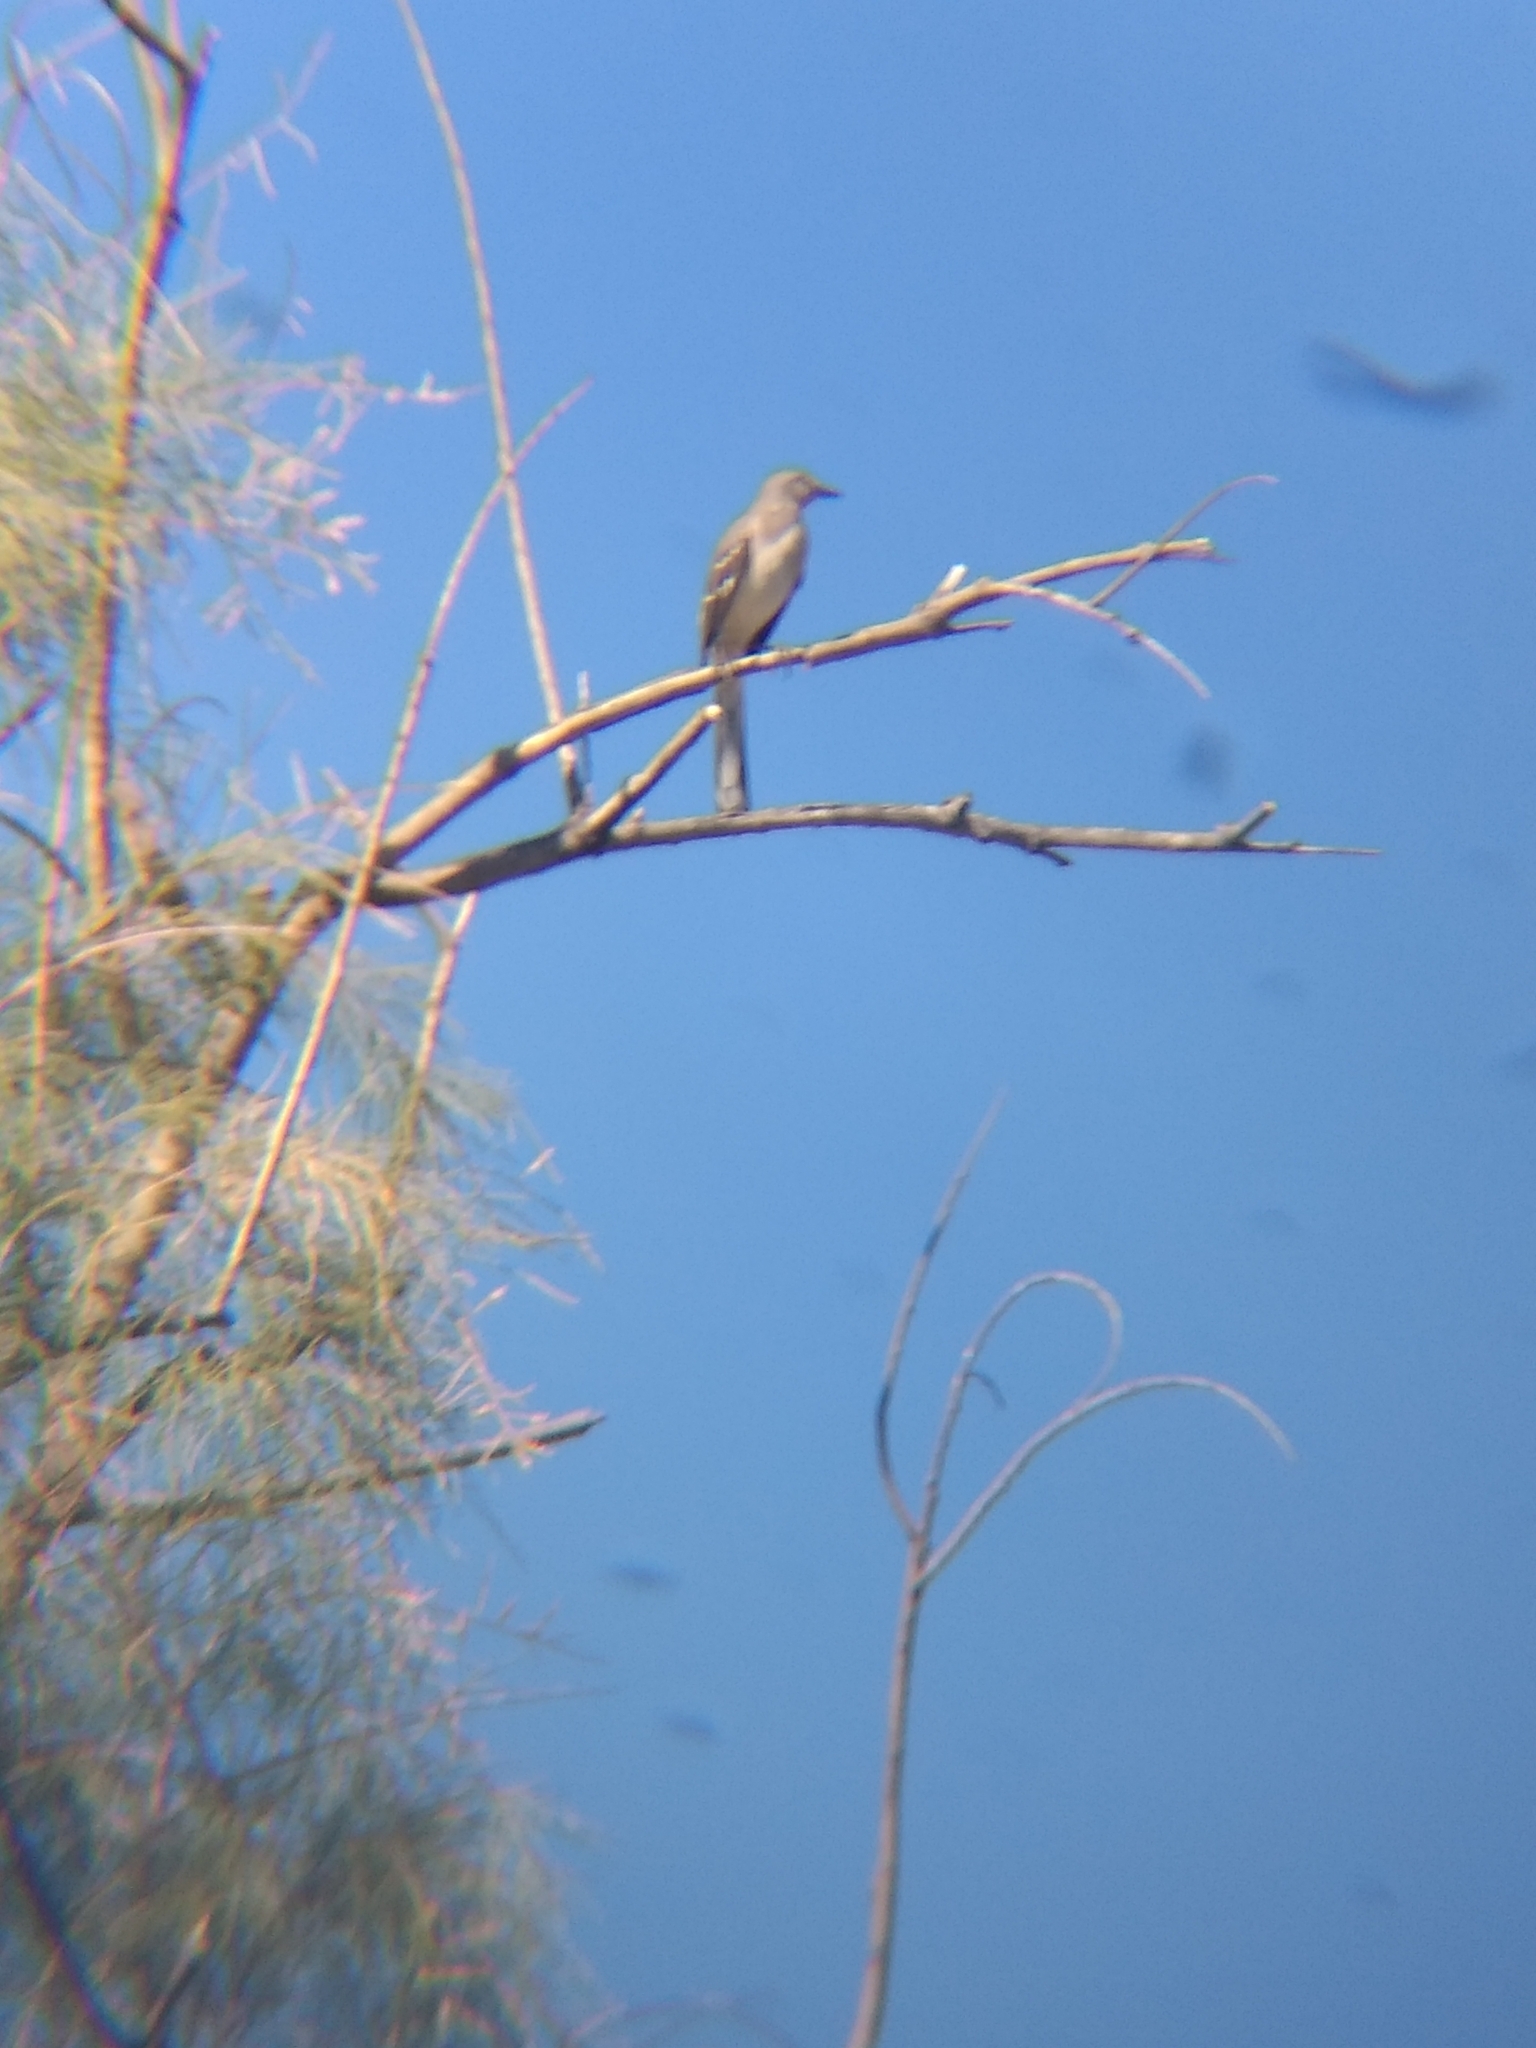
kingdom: Animalia
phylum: Chordata
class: Aves
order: Passeriformes
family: Mimidae
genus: Mimus
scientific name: Mimus polyglottos
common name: Northern mockingbird
